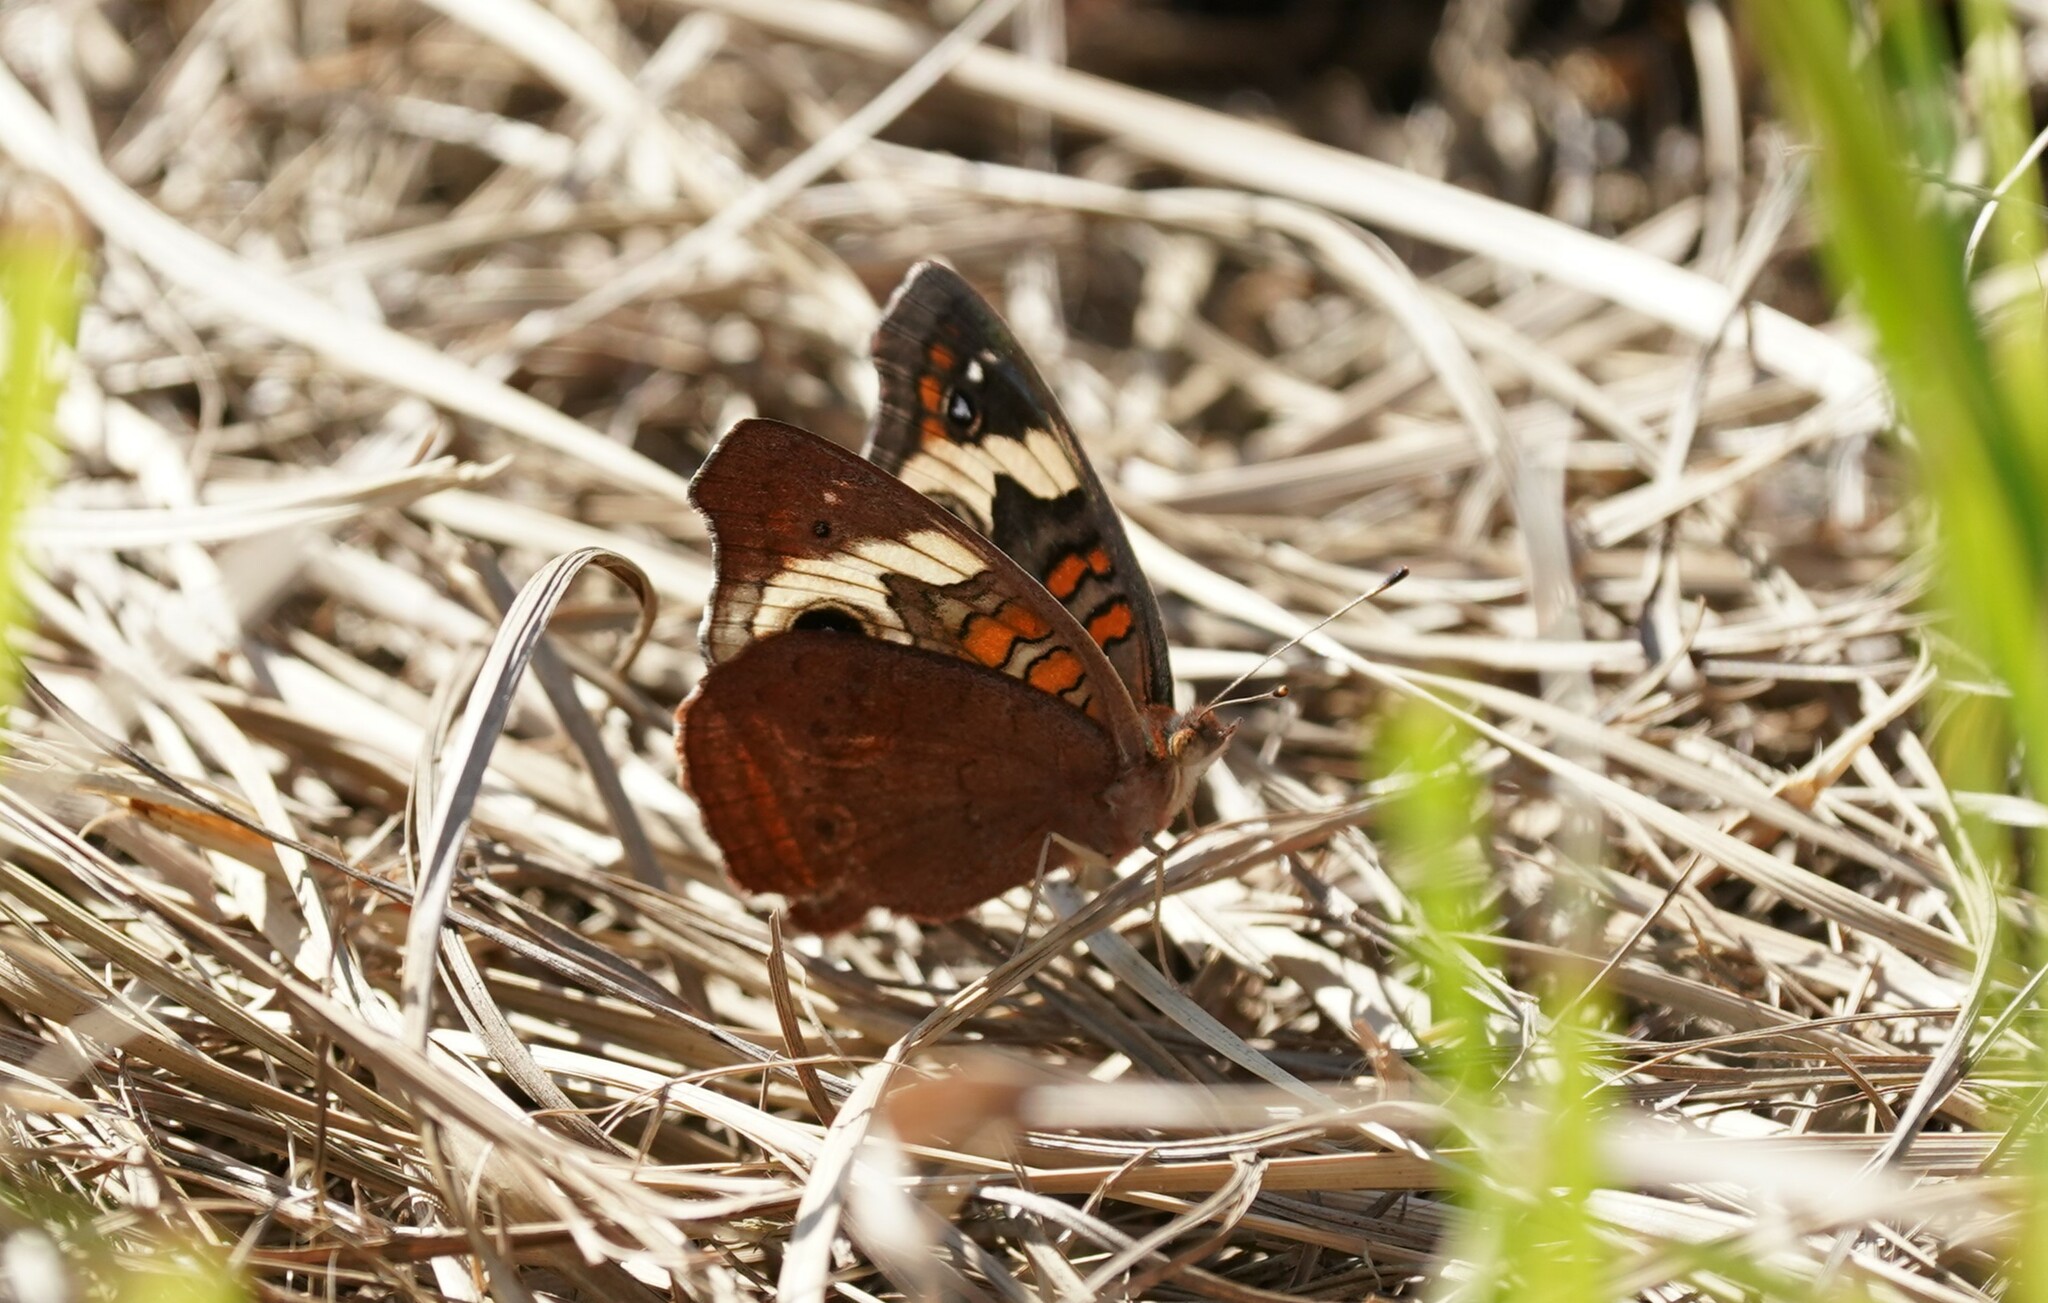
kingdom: Animalia
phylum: Arthropoda
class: Insecta
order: Lepidoptera
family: Nymphalidae
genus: Junonia
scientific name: Junonia coenia
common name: Common buckeye
